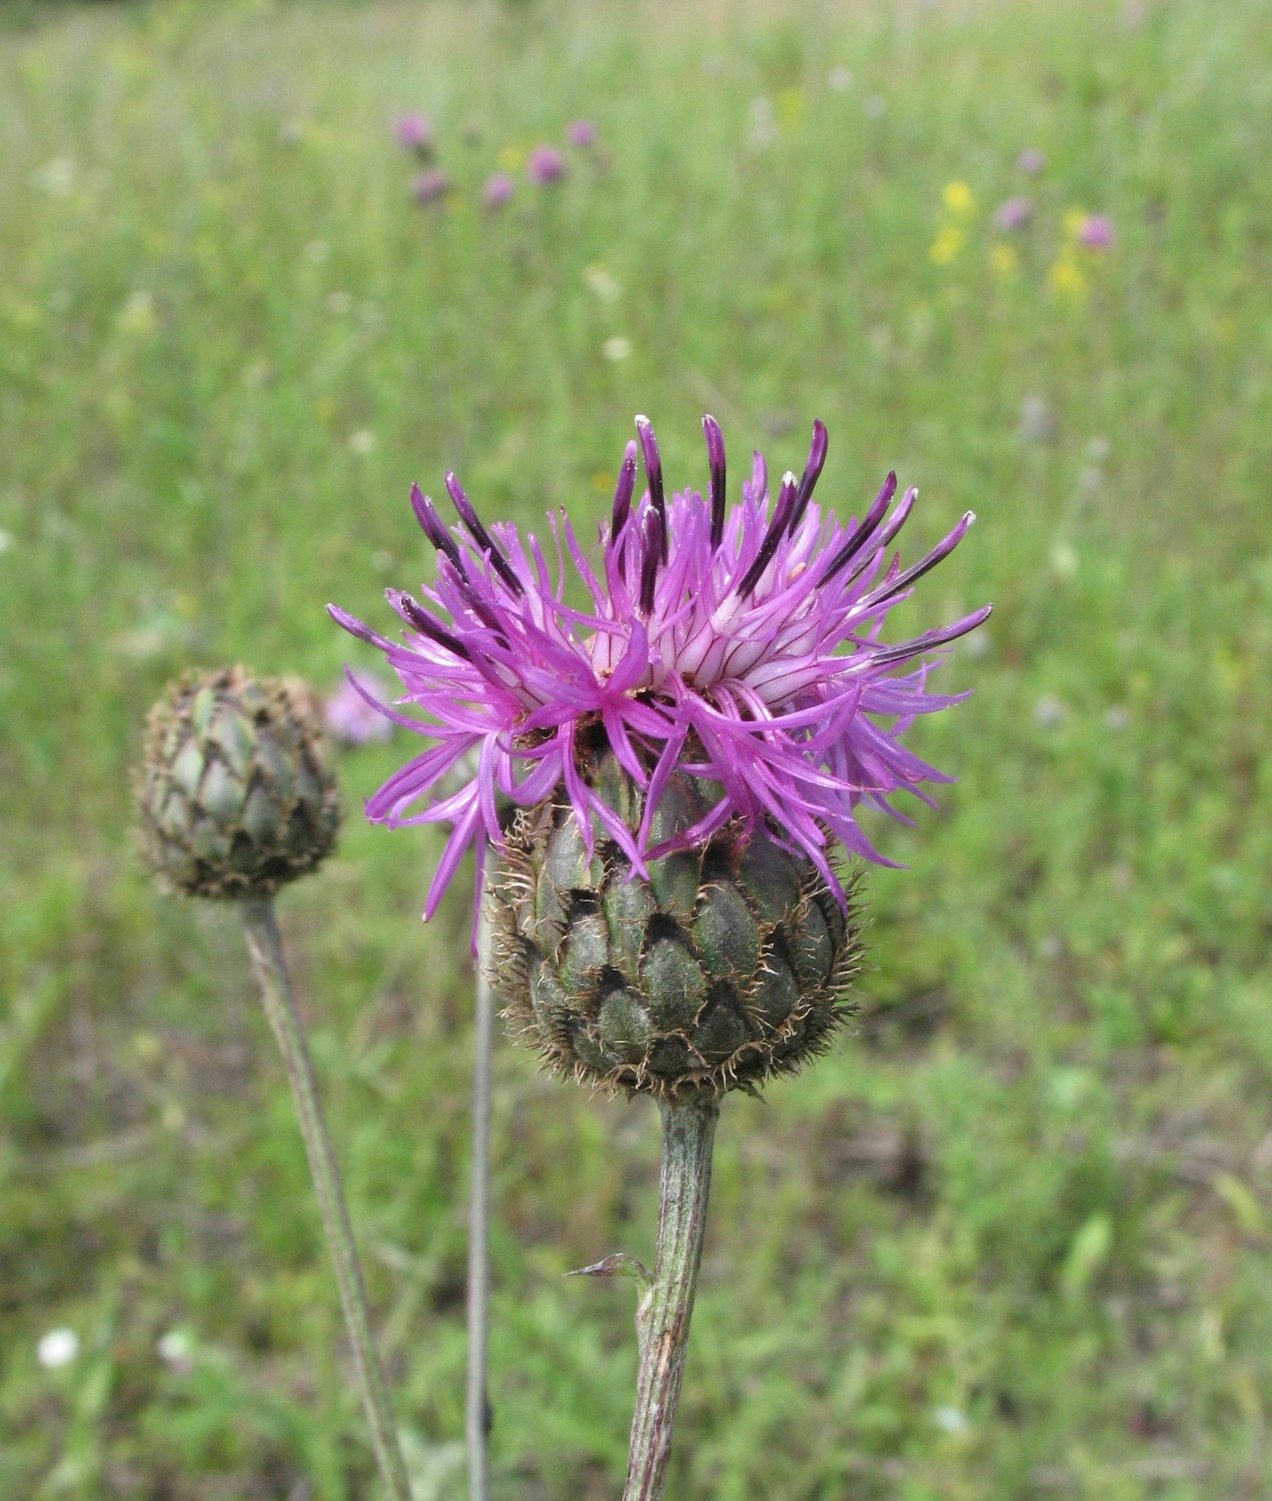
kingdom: Plantae
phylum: Tracheophyta
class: Magnoliopsida
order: Asterales
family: Asteraceae
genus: Centaurea
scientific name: Centaurea scabiosa
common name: Greater knapweed
